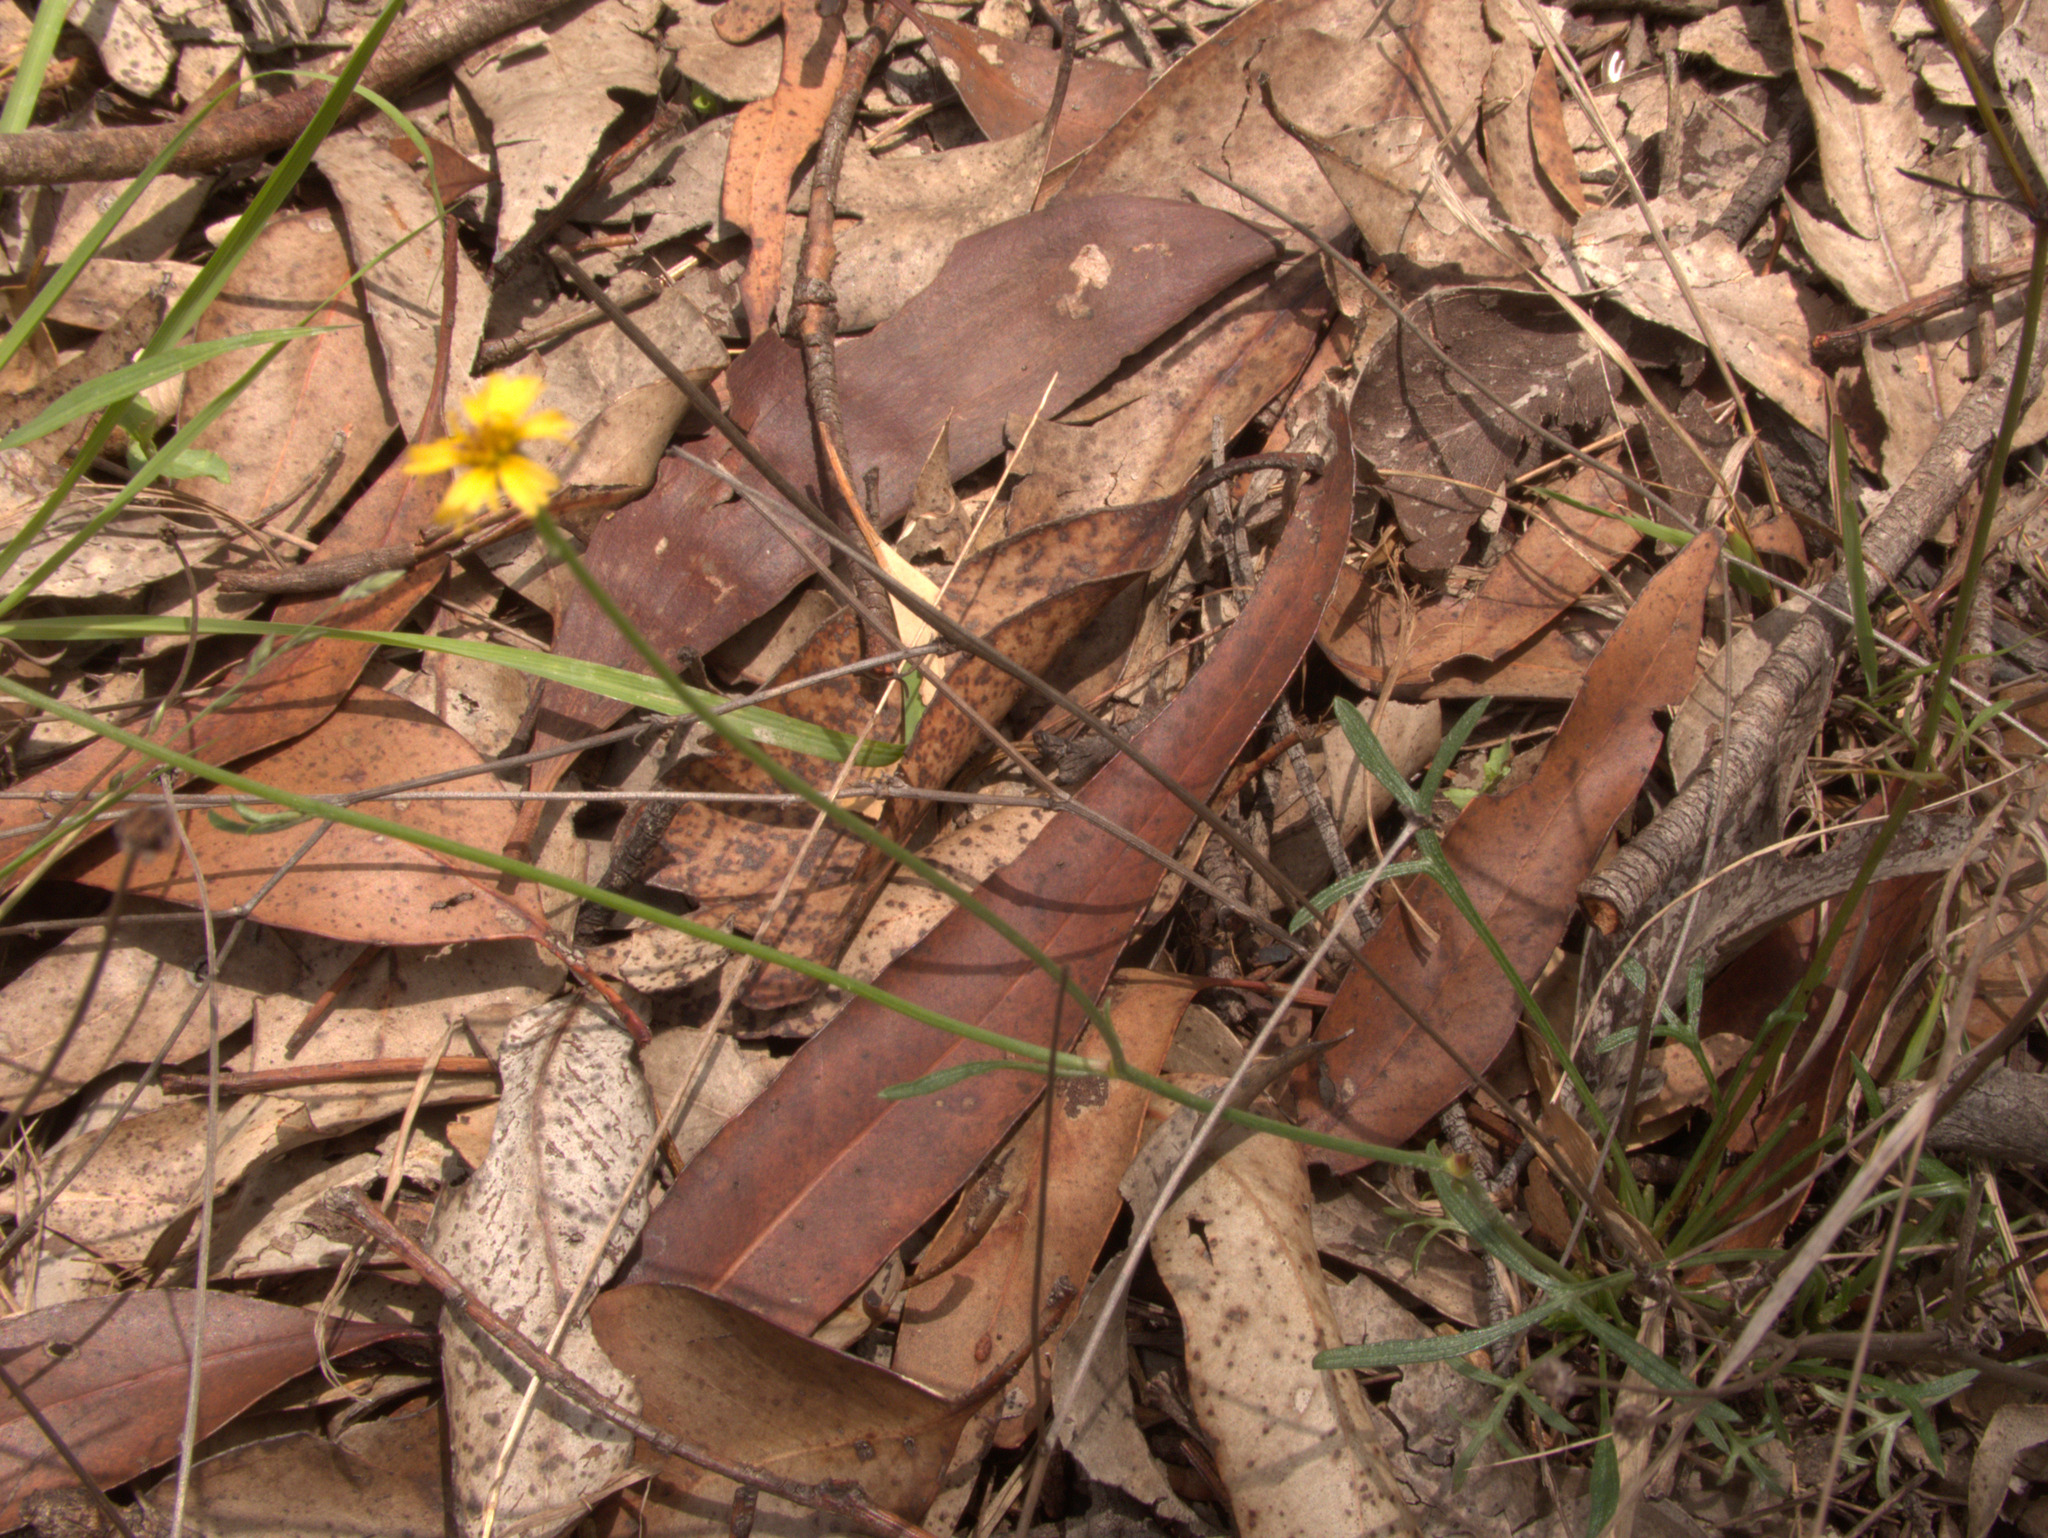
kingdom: Plantae
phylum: Tracheophyta
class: Magnoliopsida
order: Asterales
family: Asteraceae
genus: Glossocardia
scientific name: Glossocardia bidens
